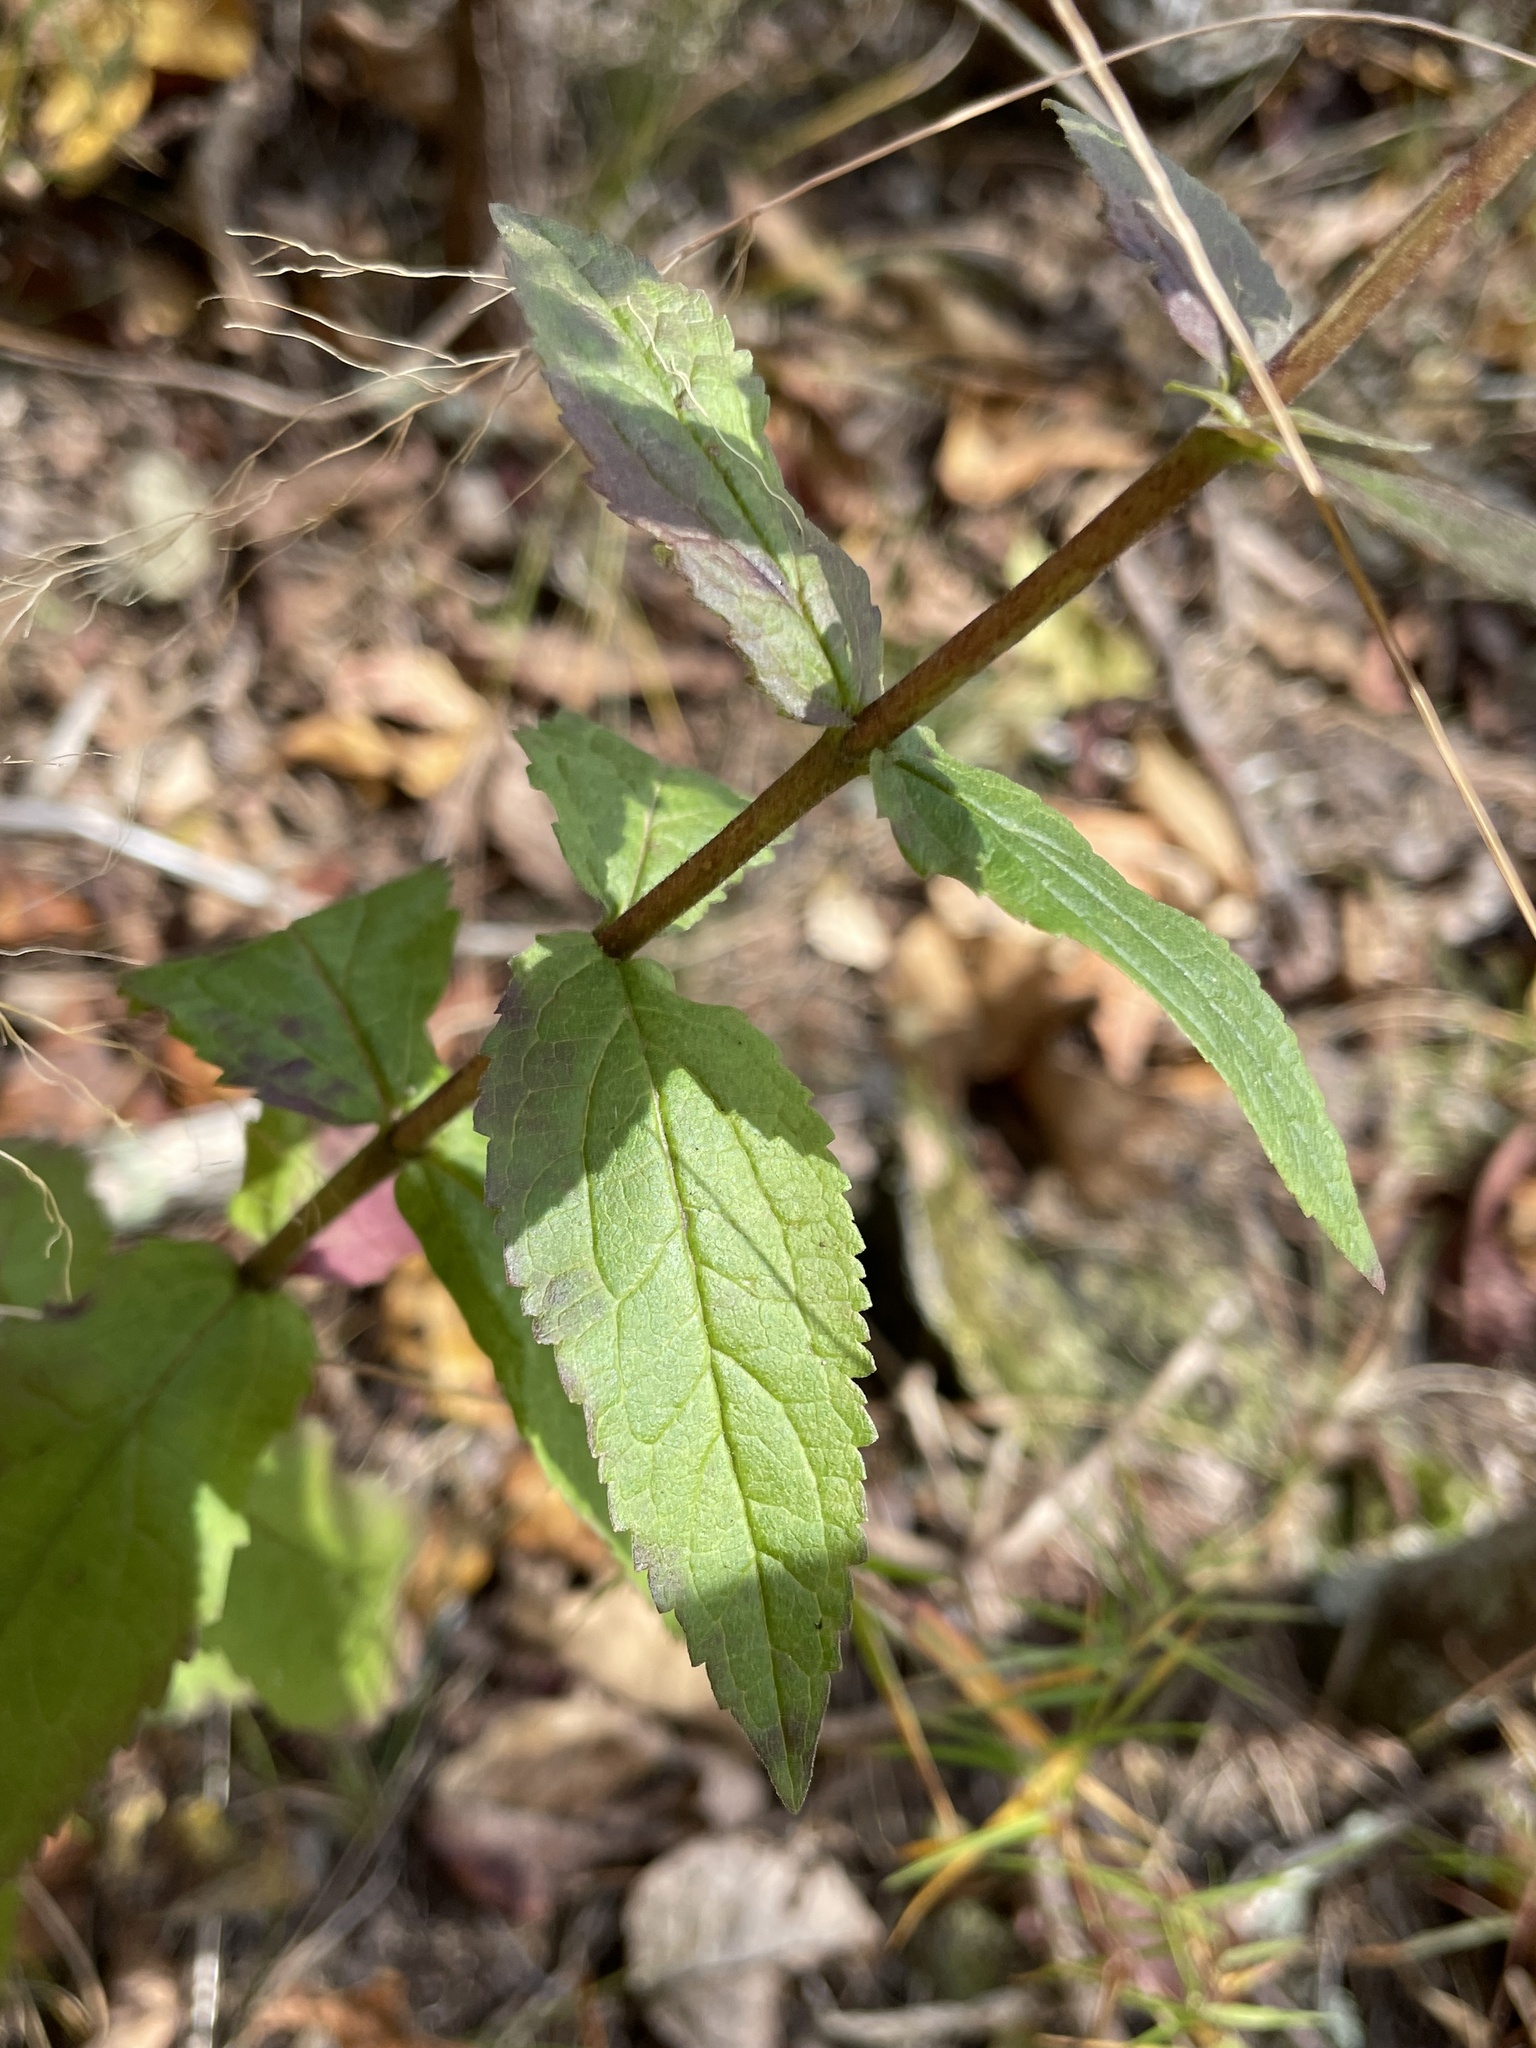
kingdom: Plantae
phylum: Tracheophyta
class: Magnoliopsida
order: Asterales
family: Asteraceae
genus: Eupatorium
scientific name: Eupatorium sessilifolium
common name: Upland boneset
